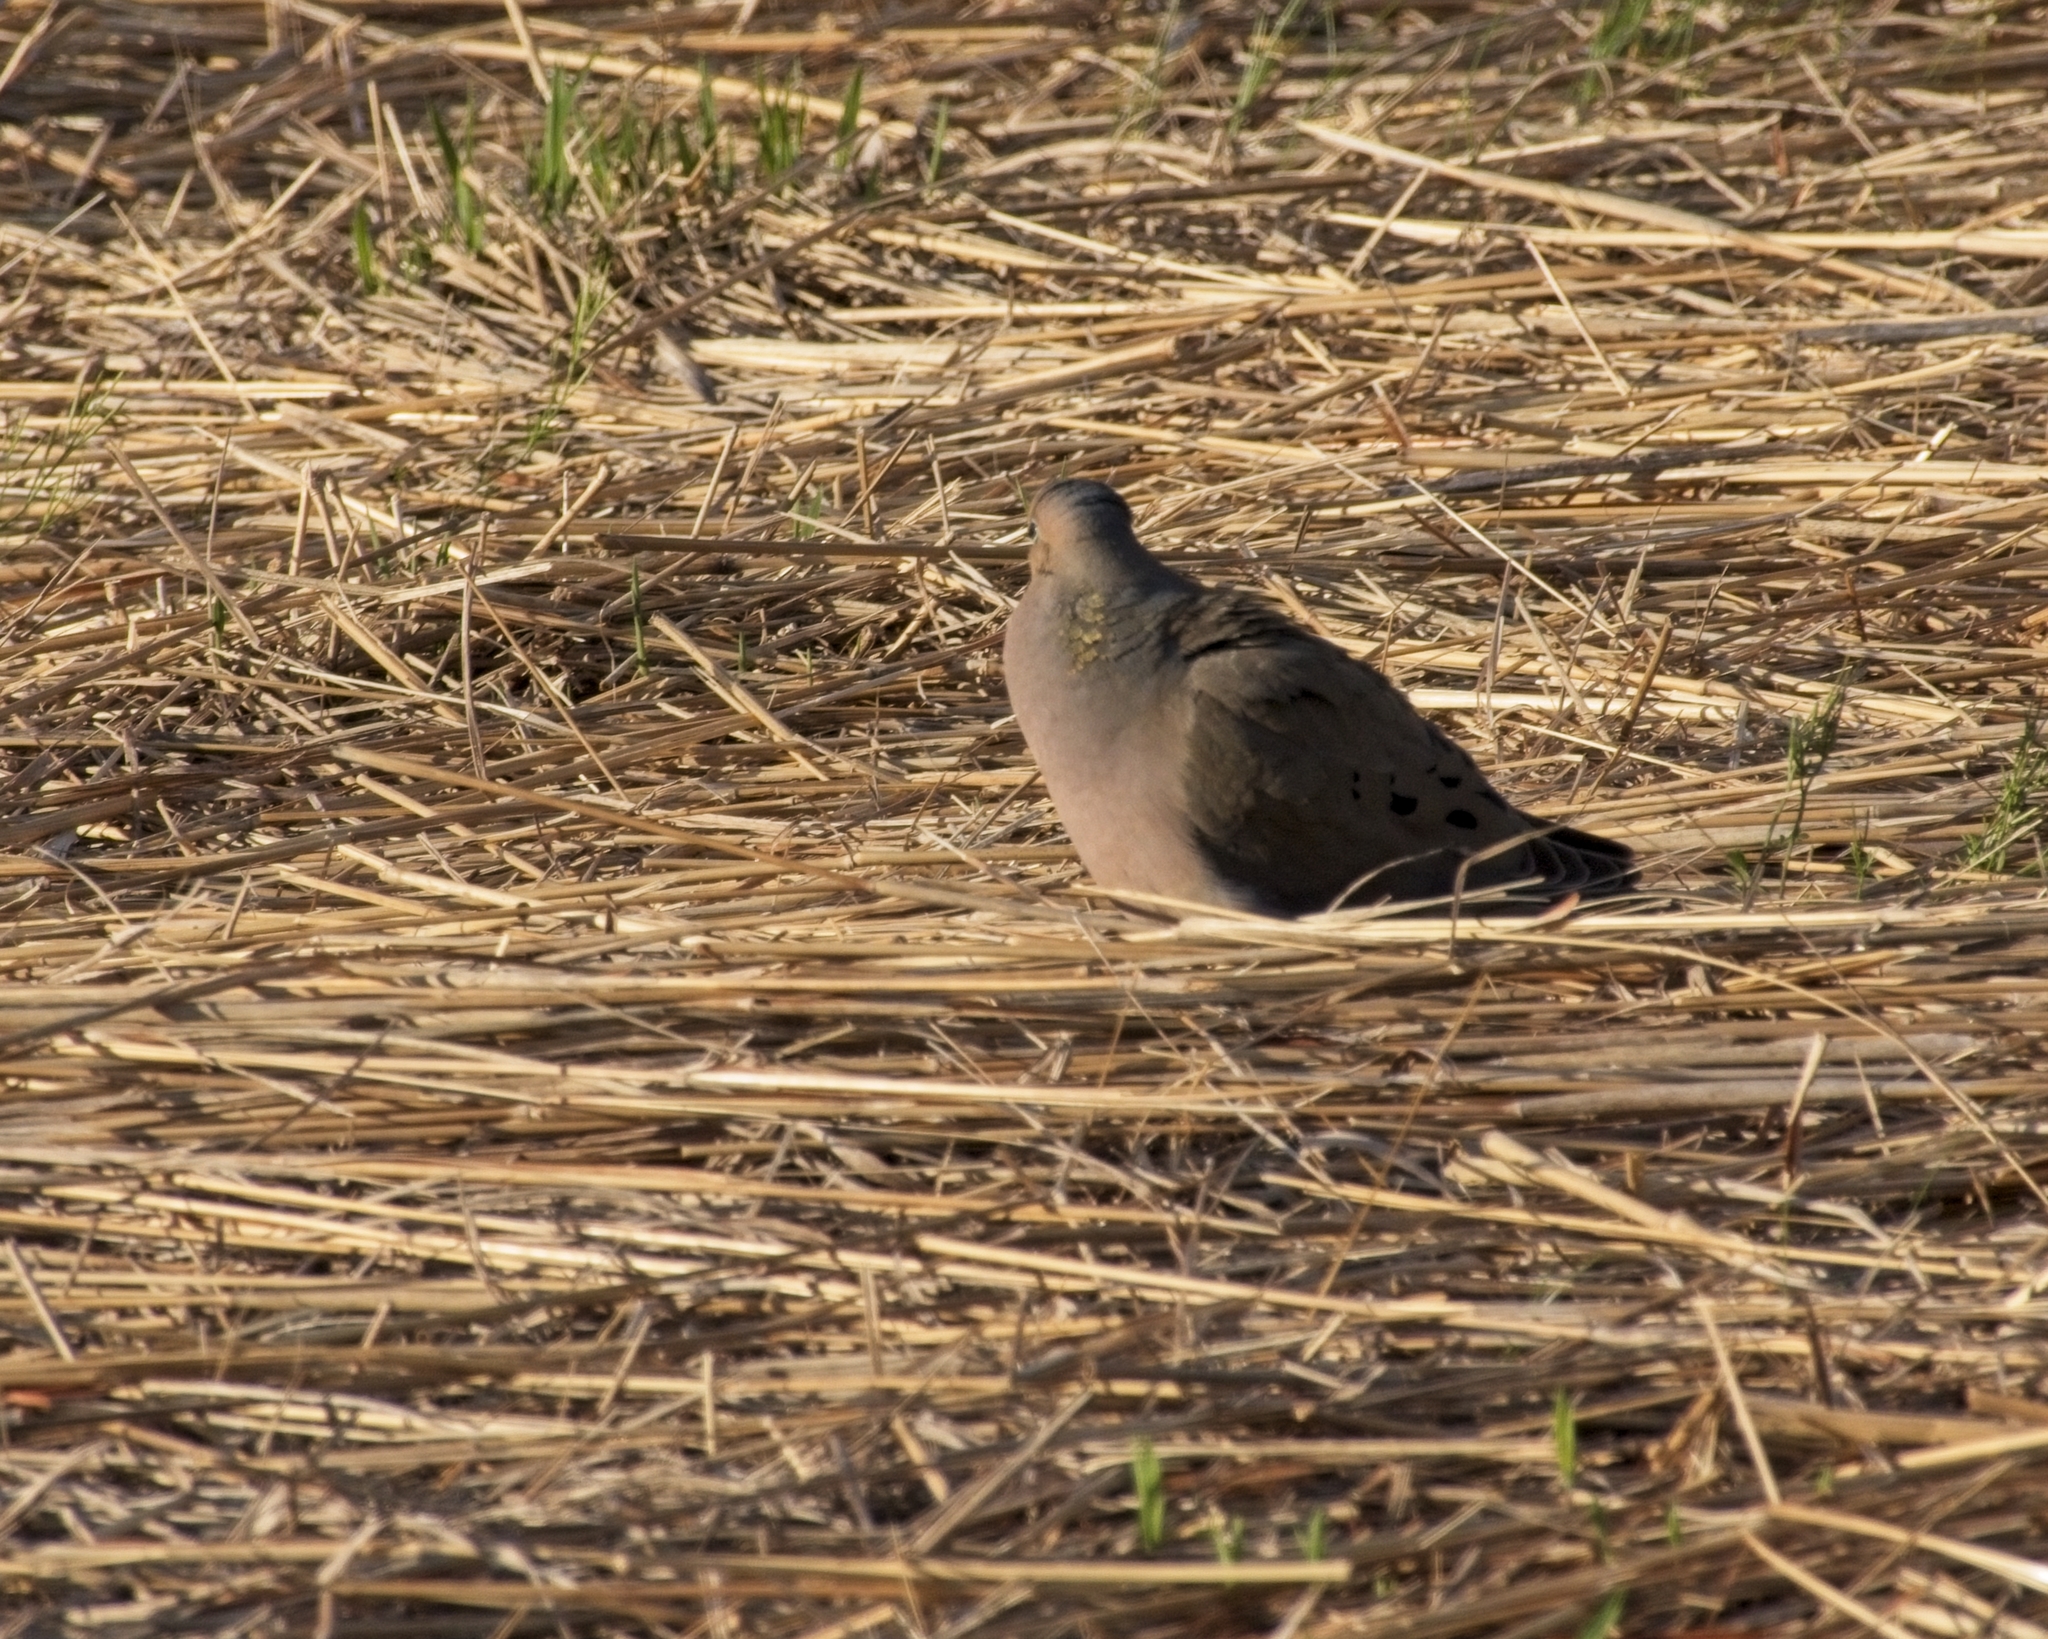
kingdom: Animalia
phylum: Chordata
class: Aves
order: Columbiformes
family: Columbidae
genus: Zenaida
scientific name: Zenaida macroura
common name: Mourning dove
